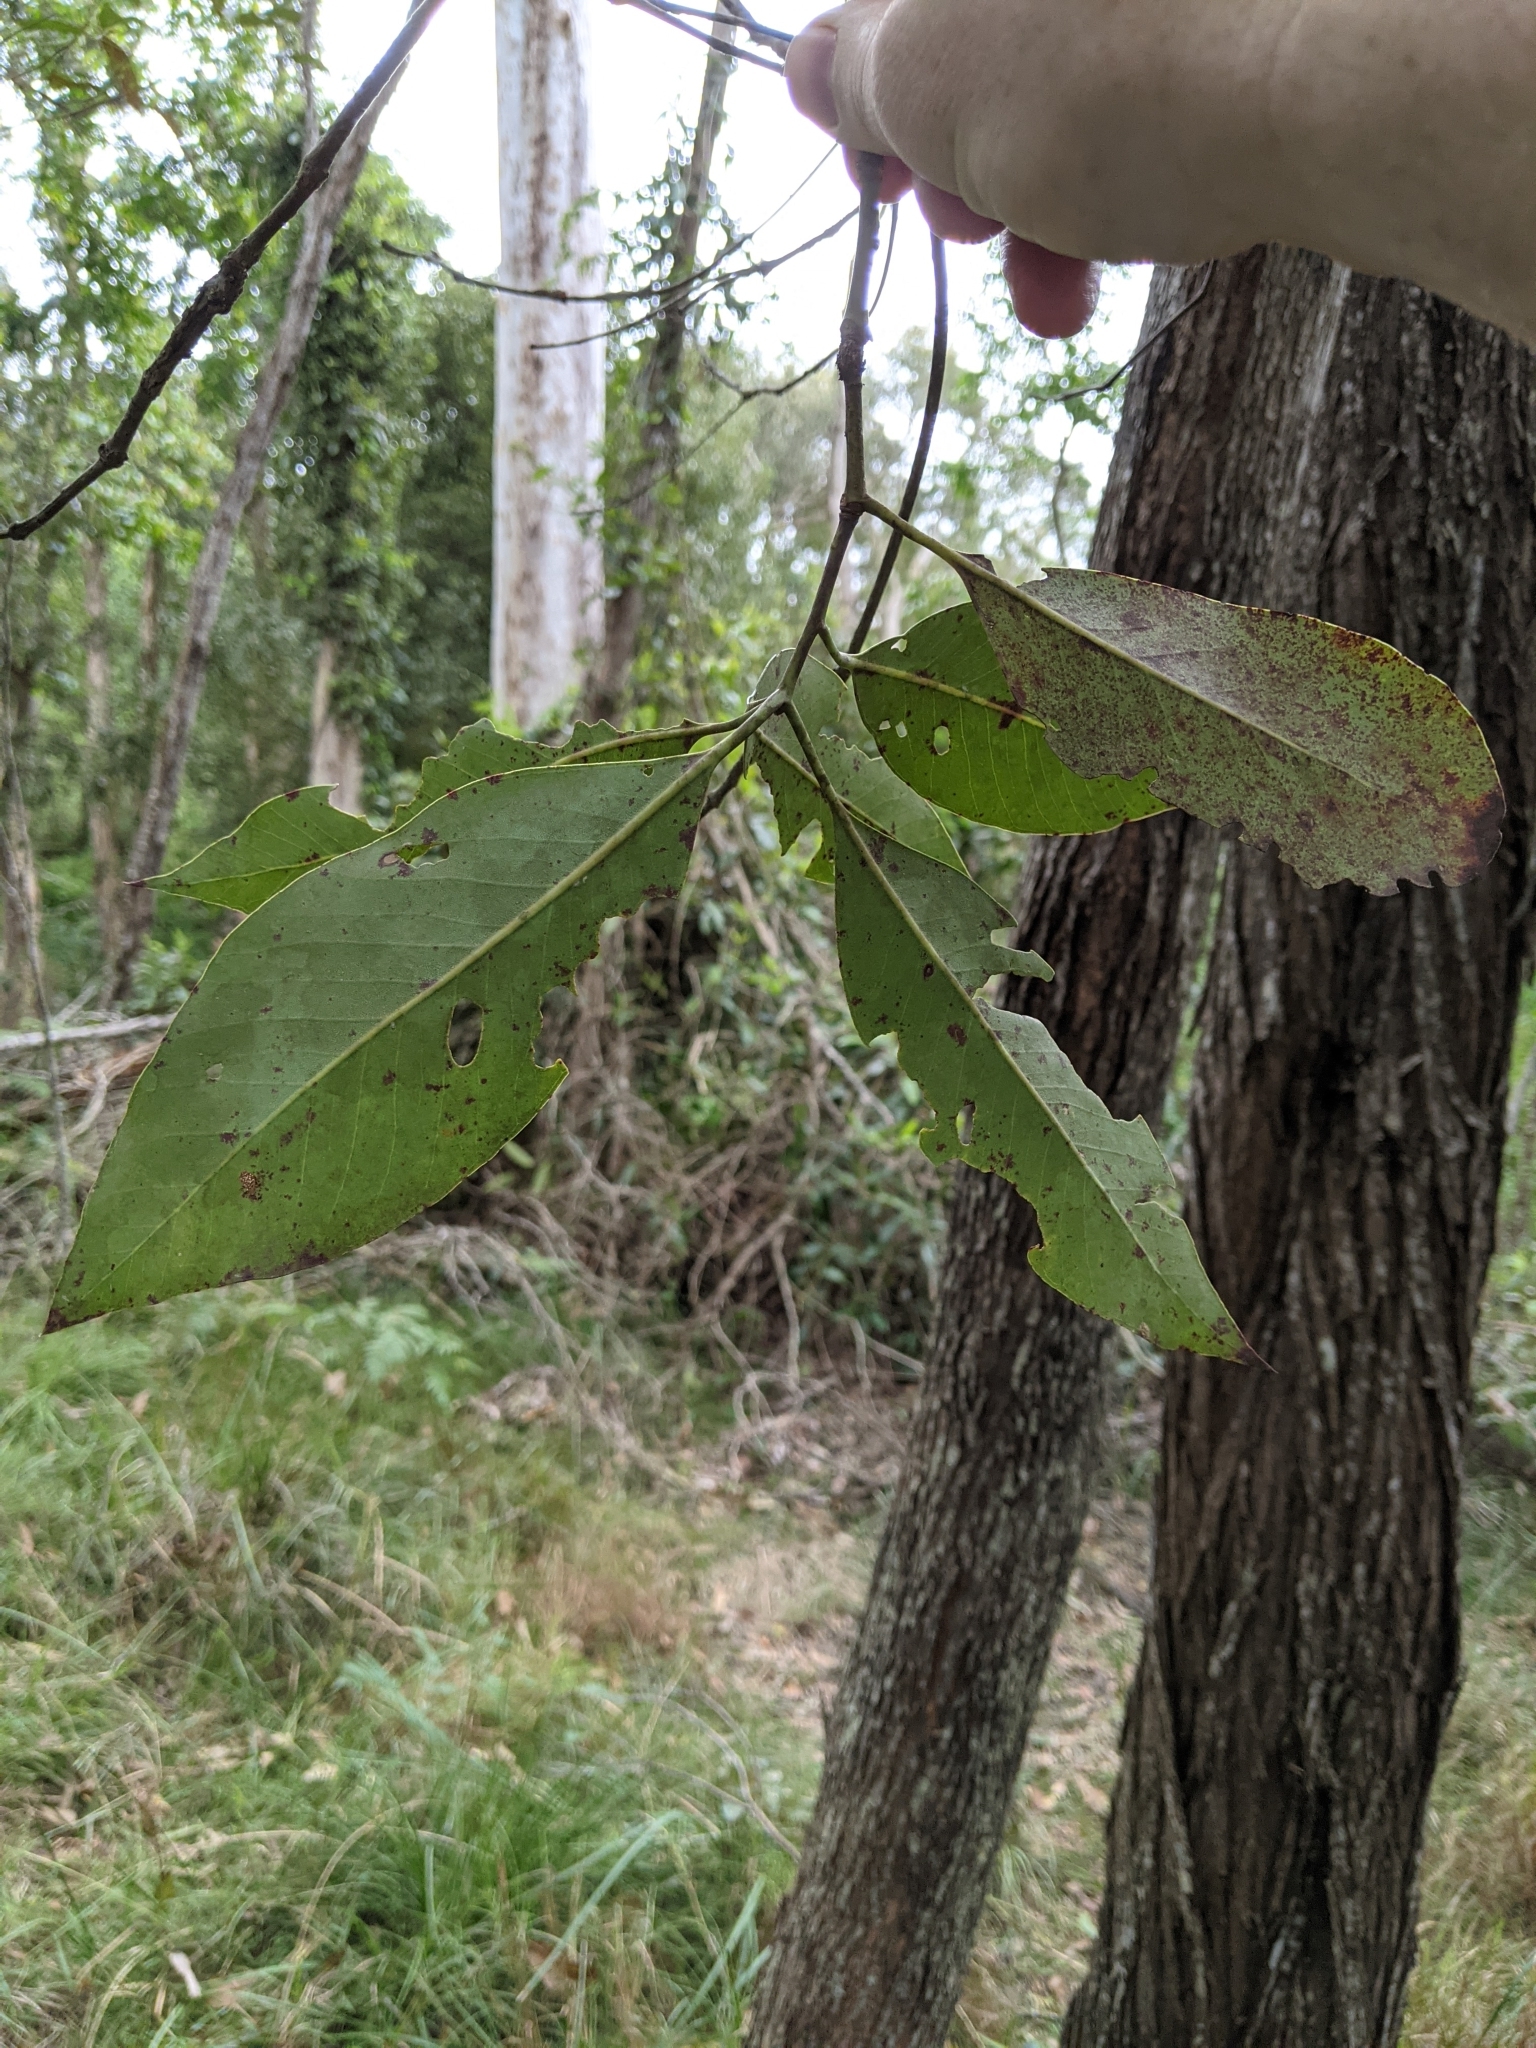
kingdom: Plantae
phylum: Tracheophyta
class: Magnoliopsida
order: Myrtales
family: Myrtaceae
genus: Lophostemon
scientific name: Lophostemon confertus
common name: Brisbane box
